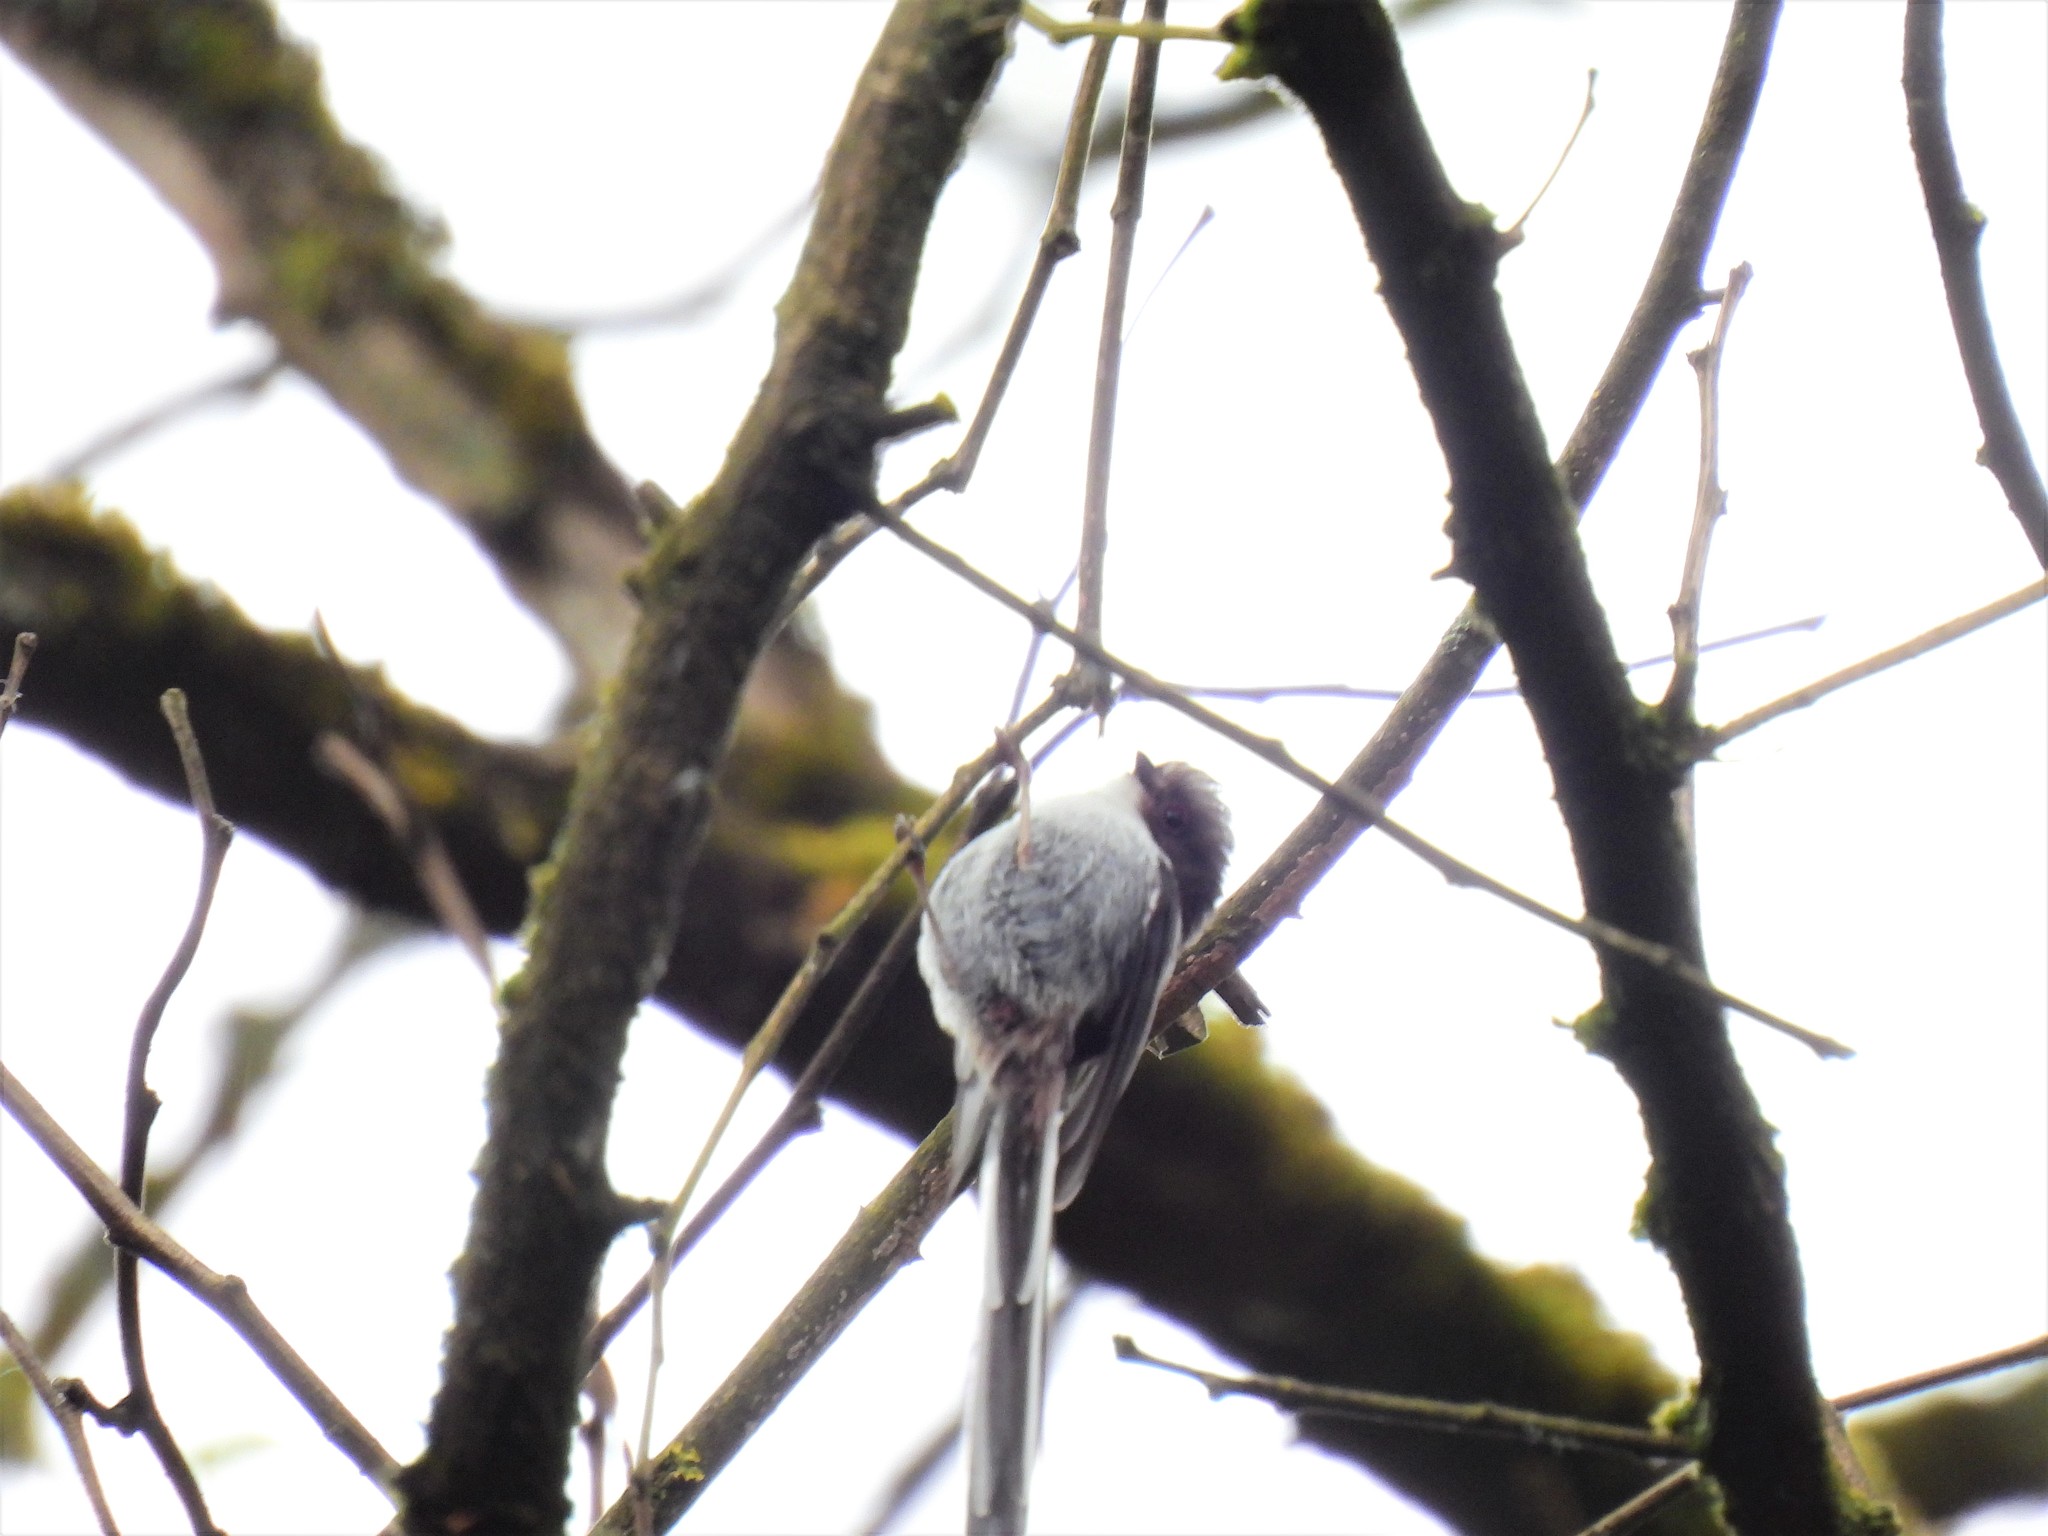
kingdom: Animalia
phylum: Chordata
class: Aves
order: Passeriformes
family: Aegithalidae
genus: Aegithalos
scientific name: Aegithalos caudatus
